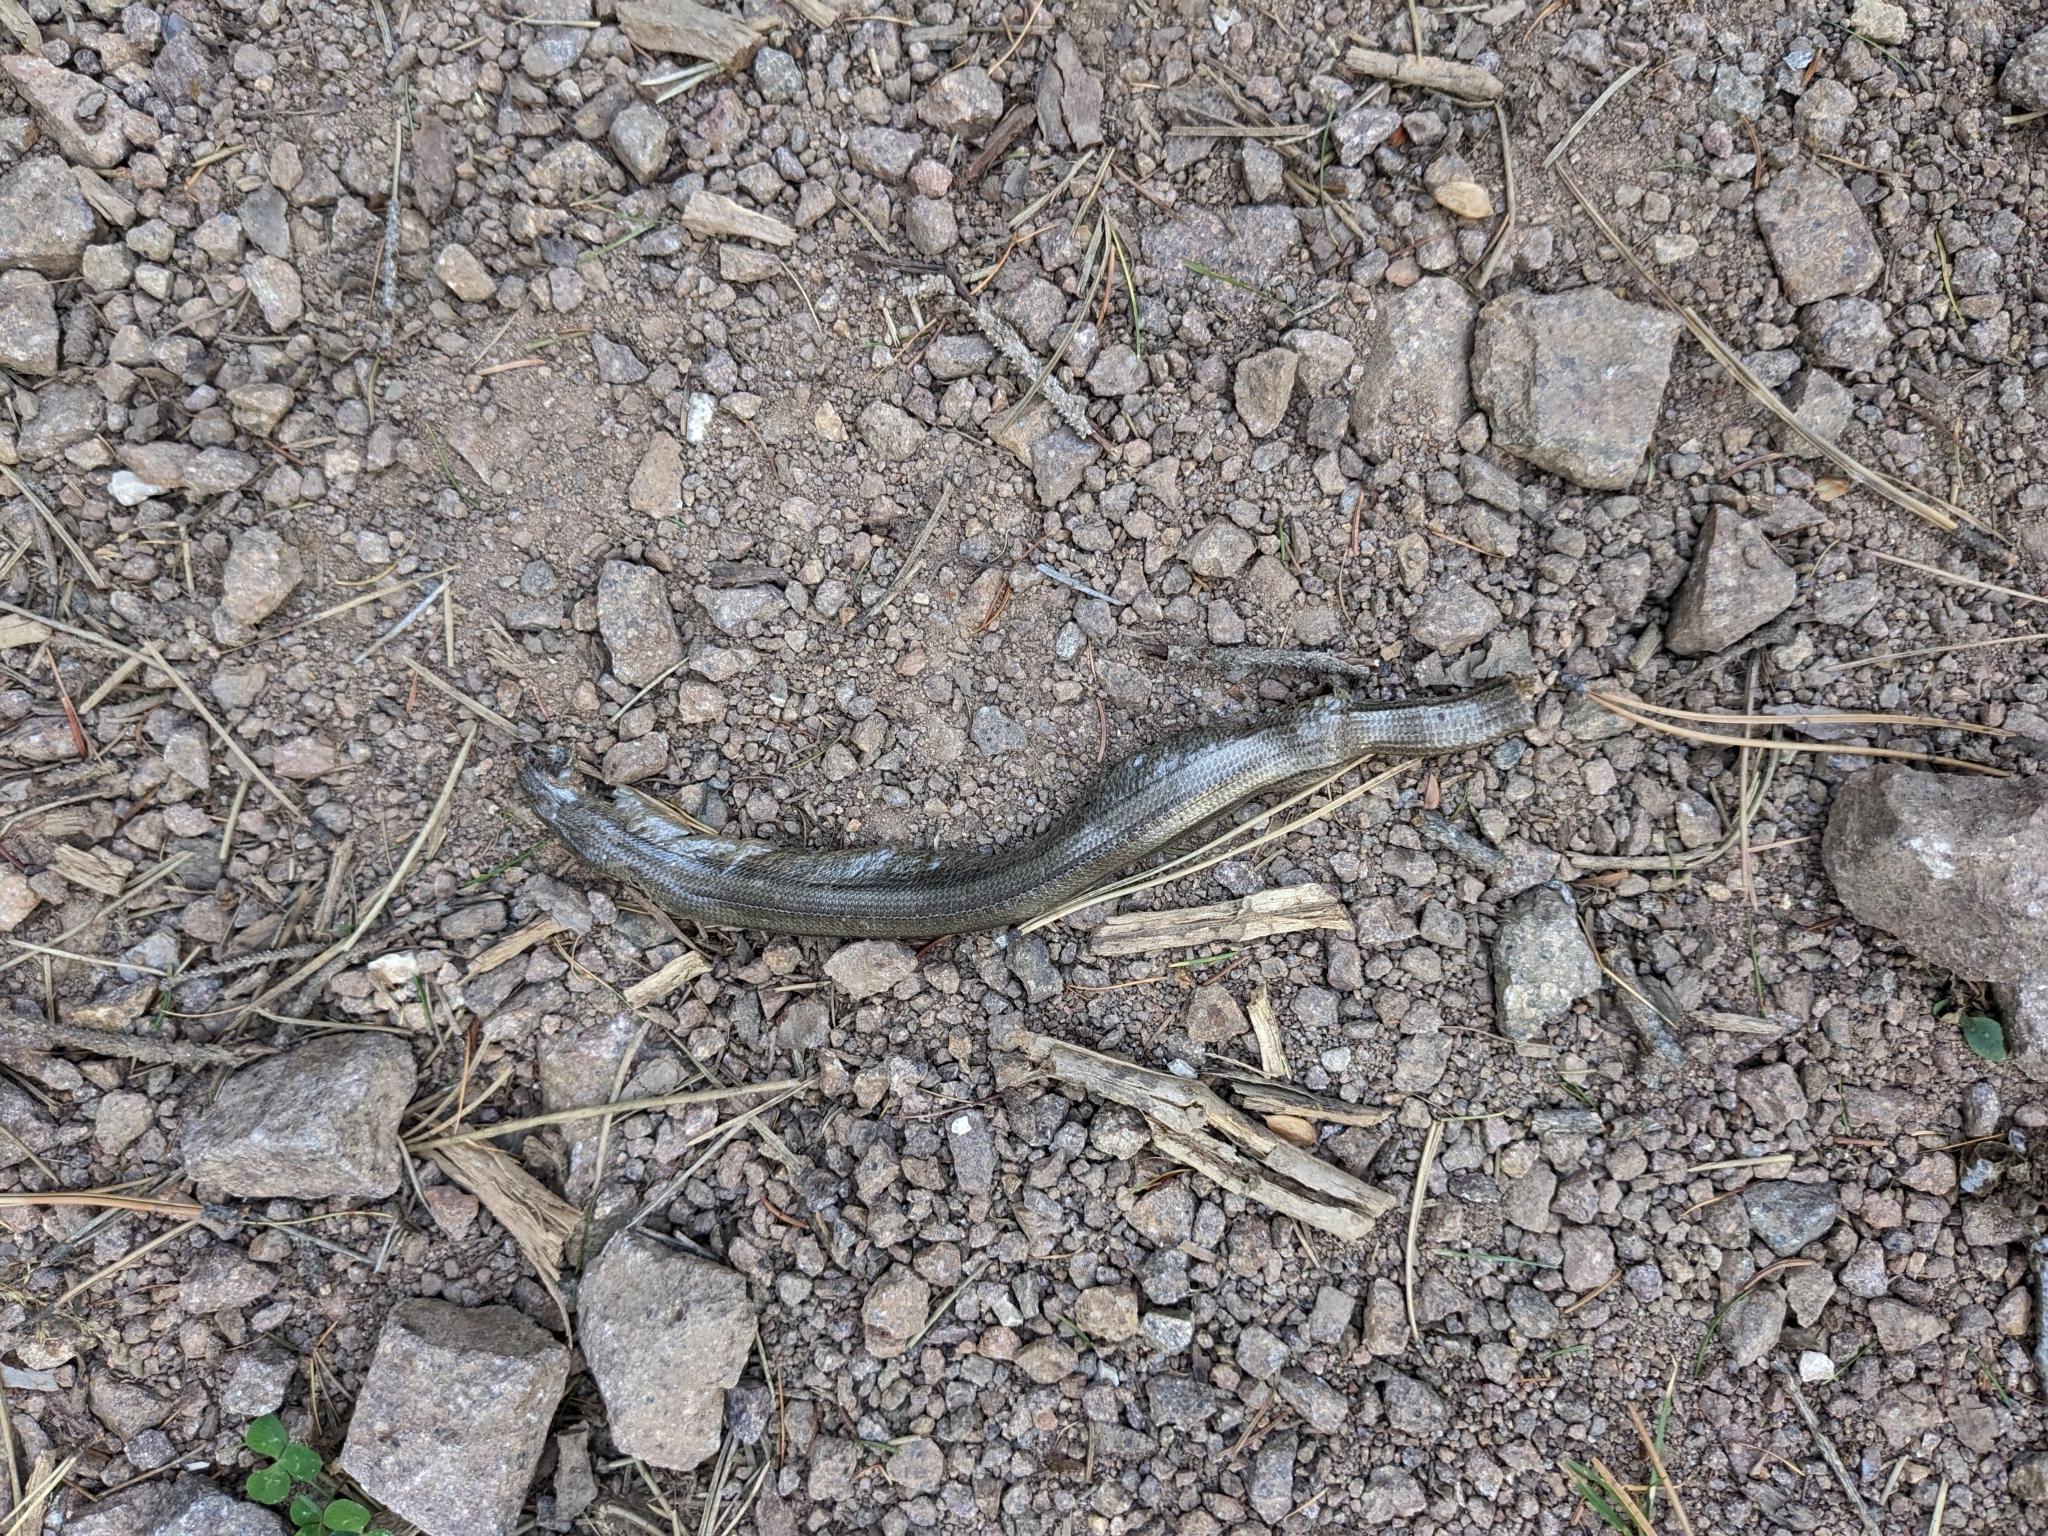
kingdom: Animalia
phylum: Chordata
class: Squamata
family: Anguidae
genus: Anguis
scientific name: Anguis veronensis
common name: Italian slow worm
